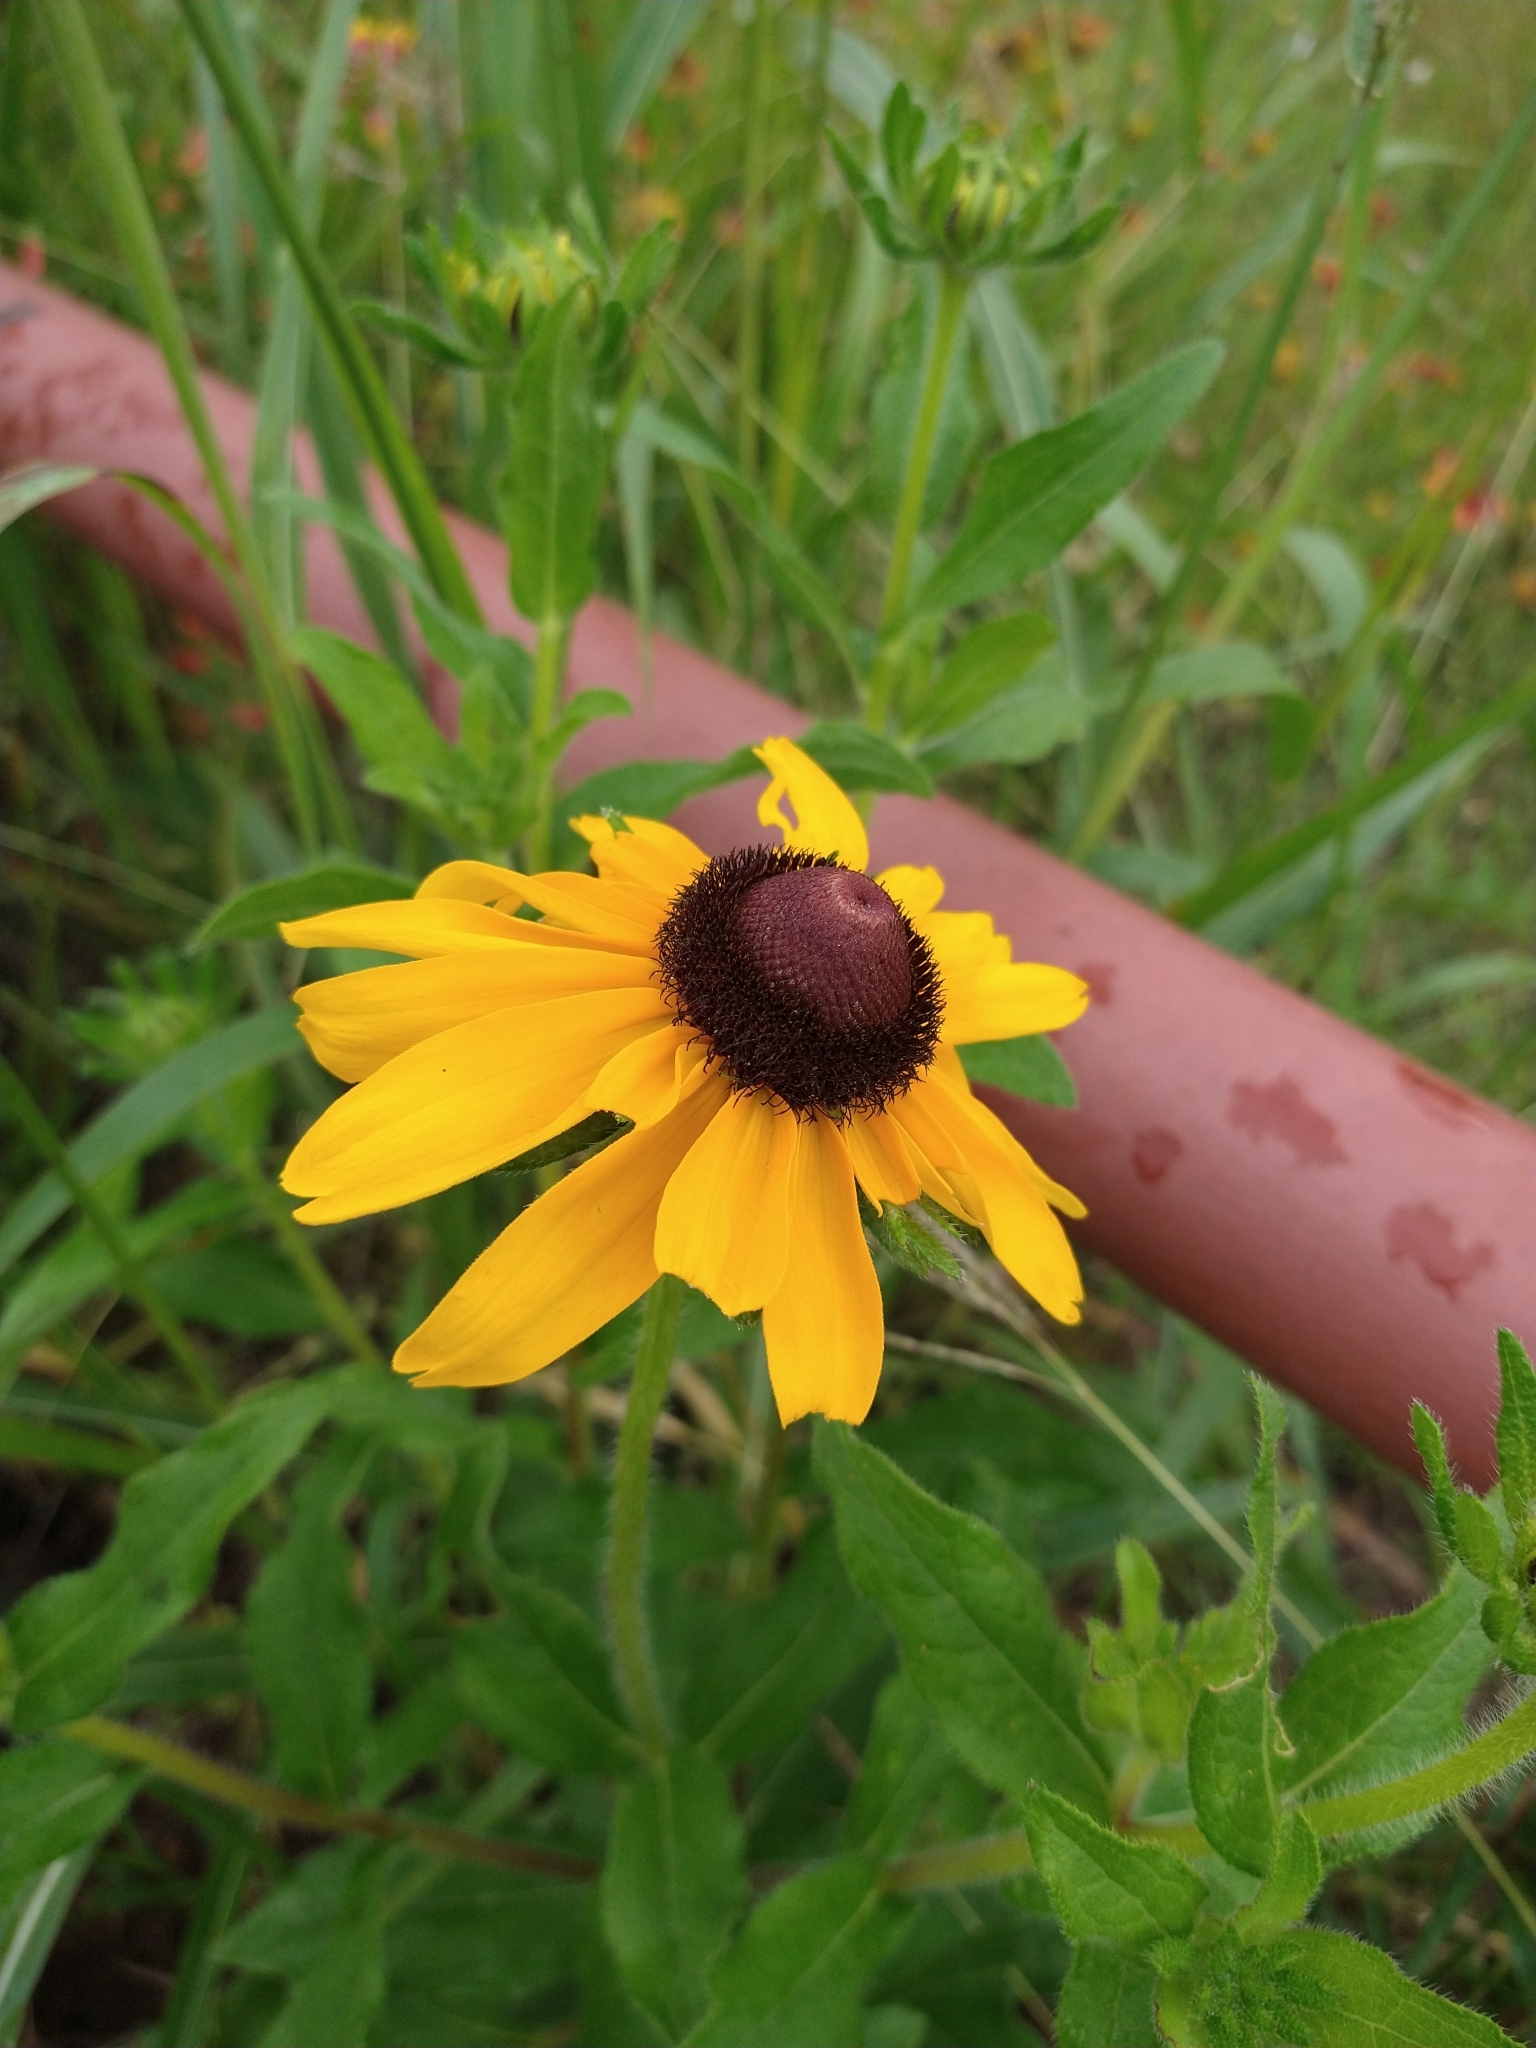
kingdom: Plantae
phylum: Tracheophyta
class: Magnoliopsida
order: Asterales
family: Asteraceae
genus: Rudbeckia
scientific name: Rudbeckia hirta
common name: Black-eyed-susan
